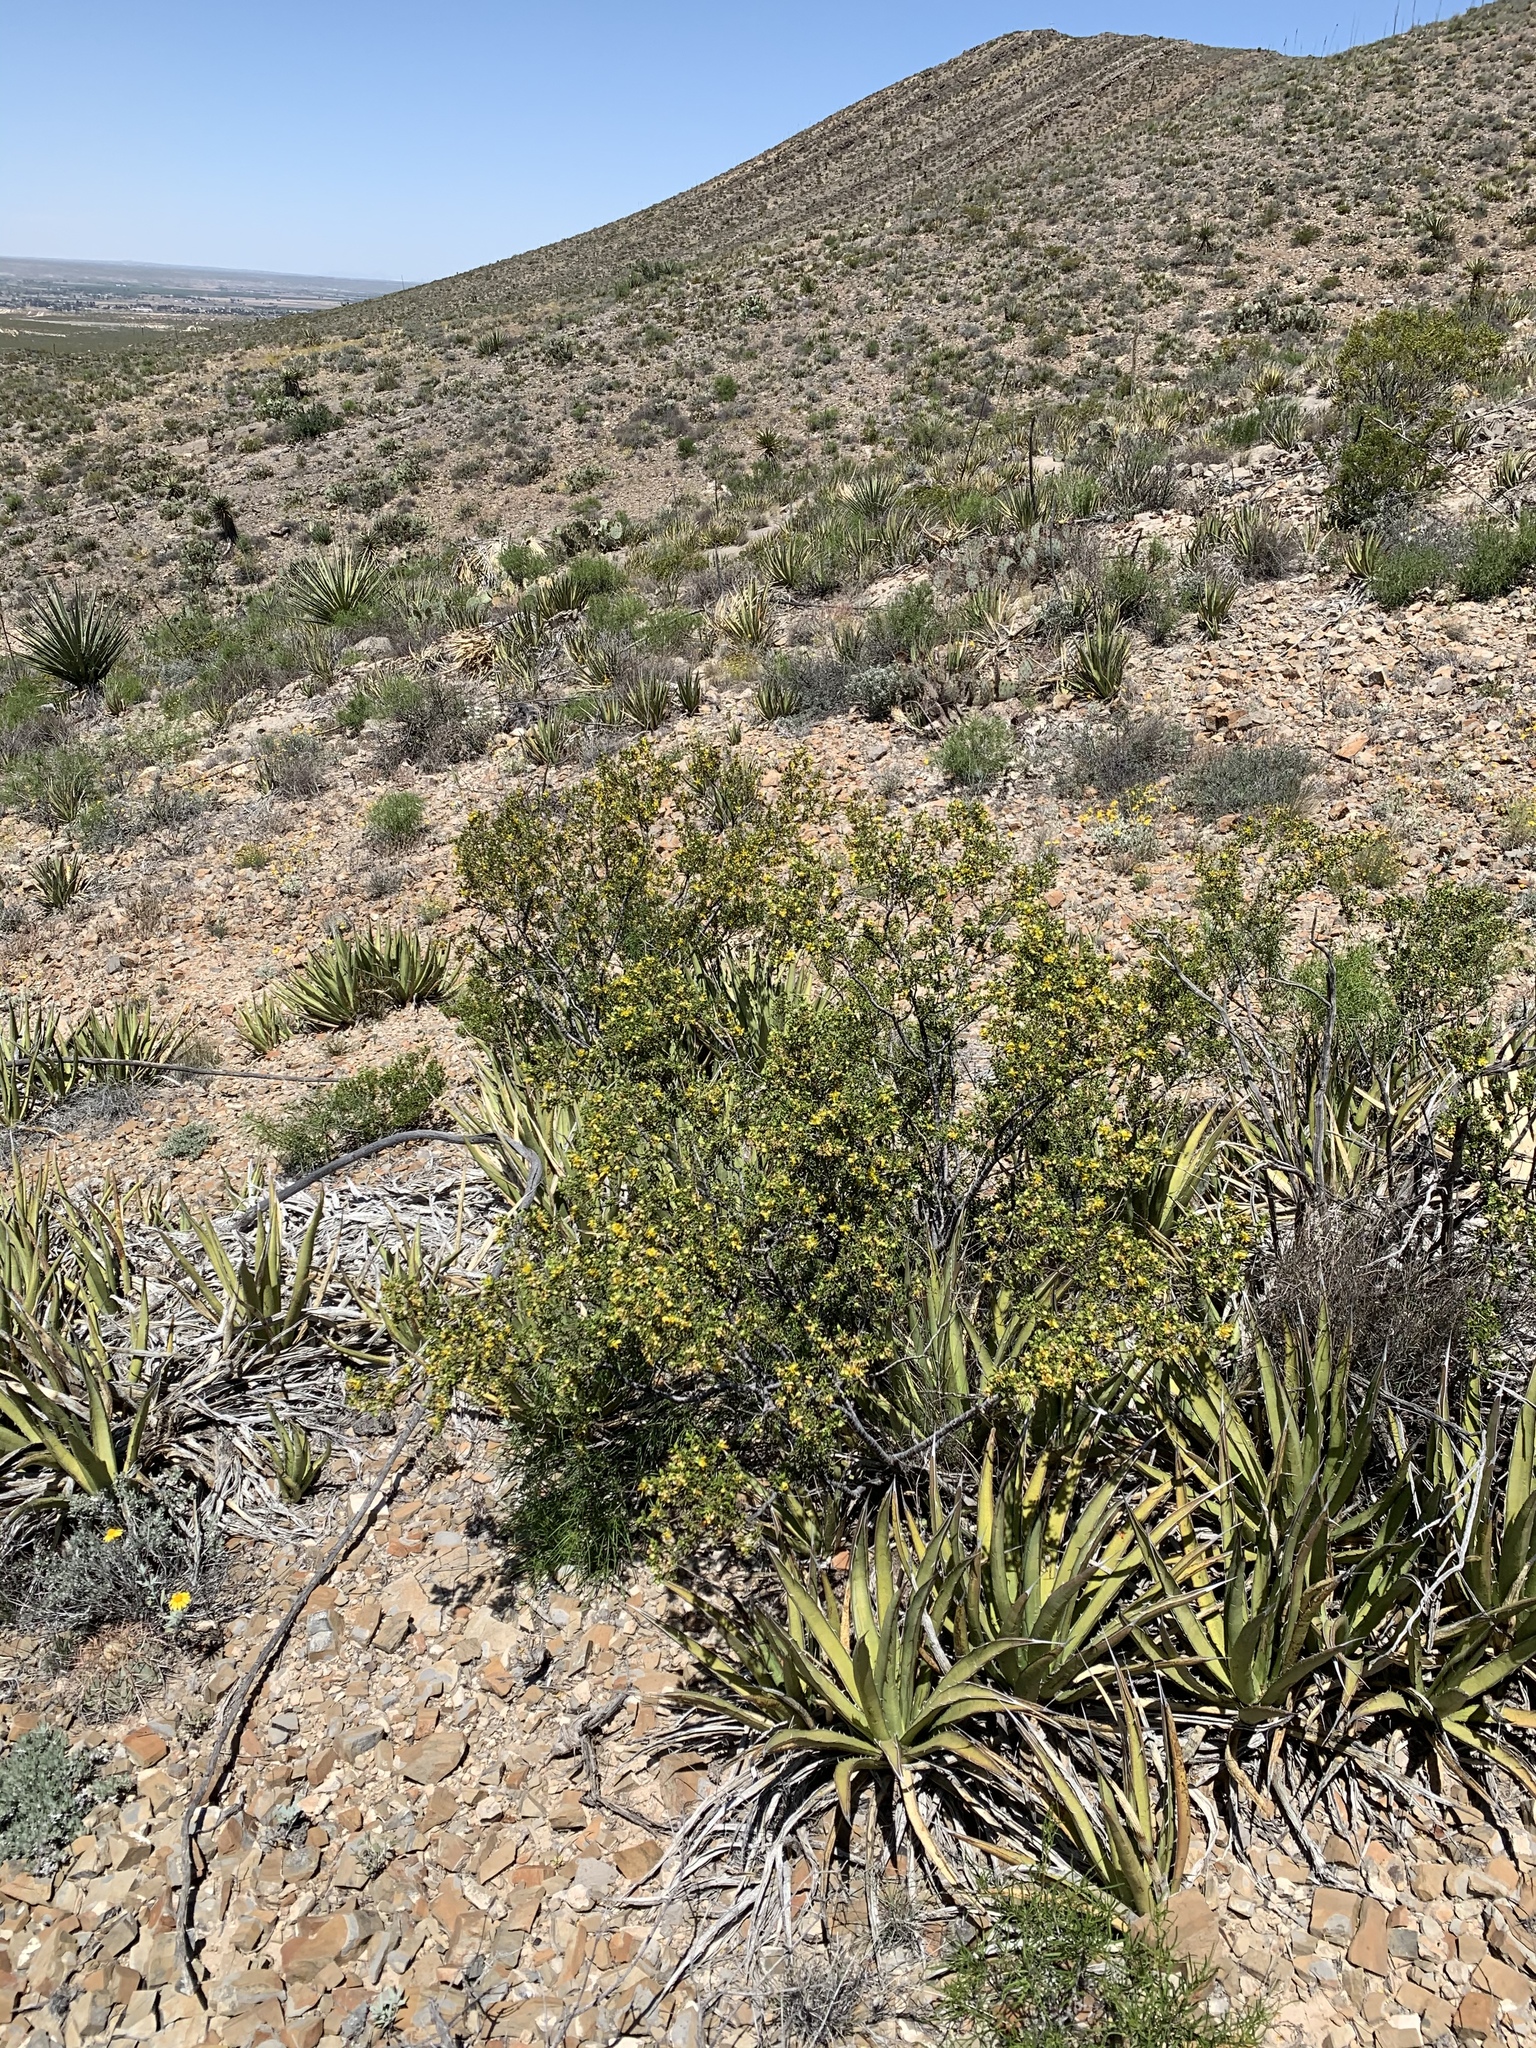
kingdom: Plantae
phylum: Tracheophyta
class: Magnoliopsida
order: Zygophyllales
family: Zygophyllaceae
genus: Larrea
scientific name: Larrea tridentata
